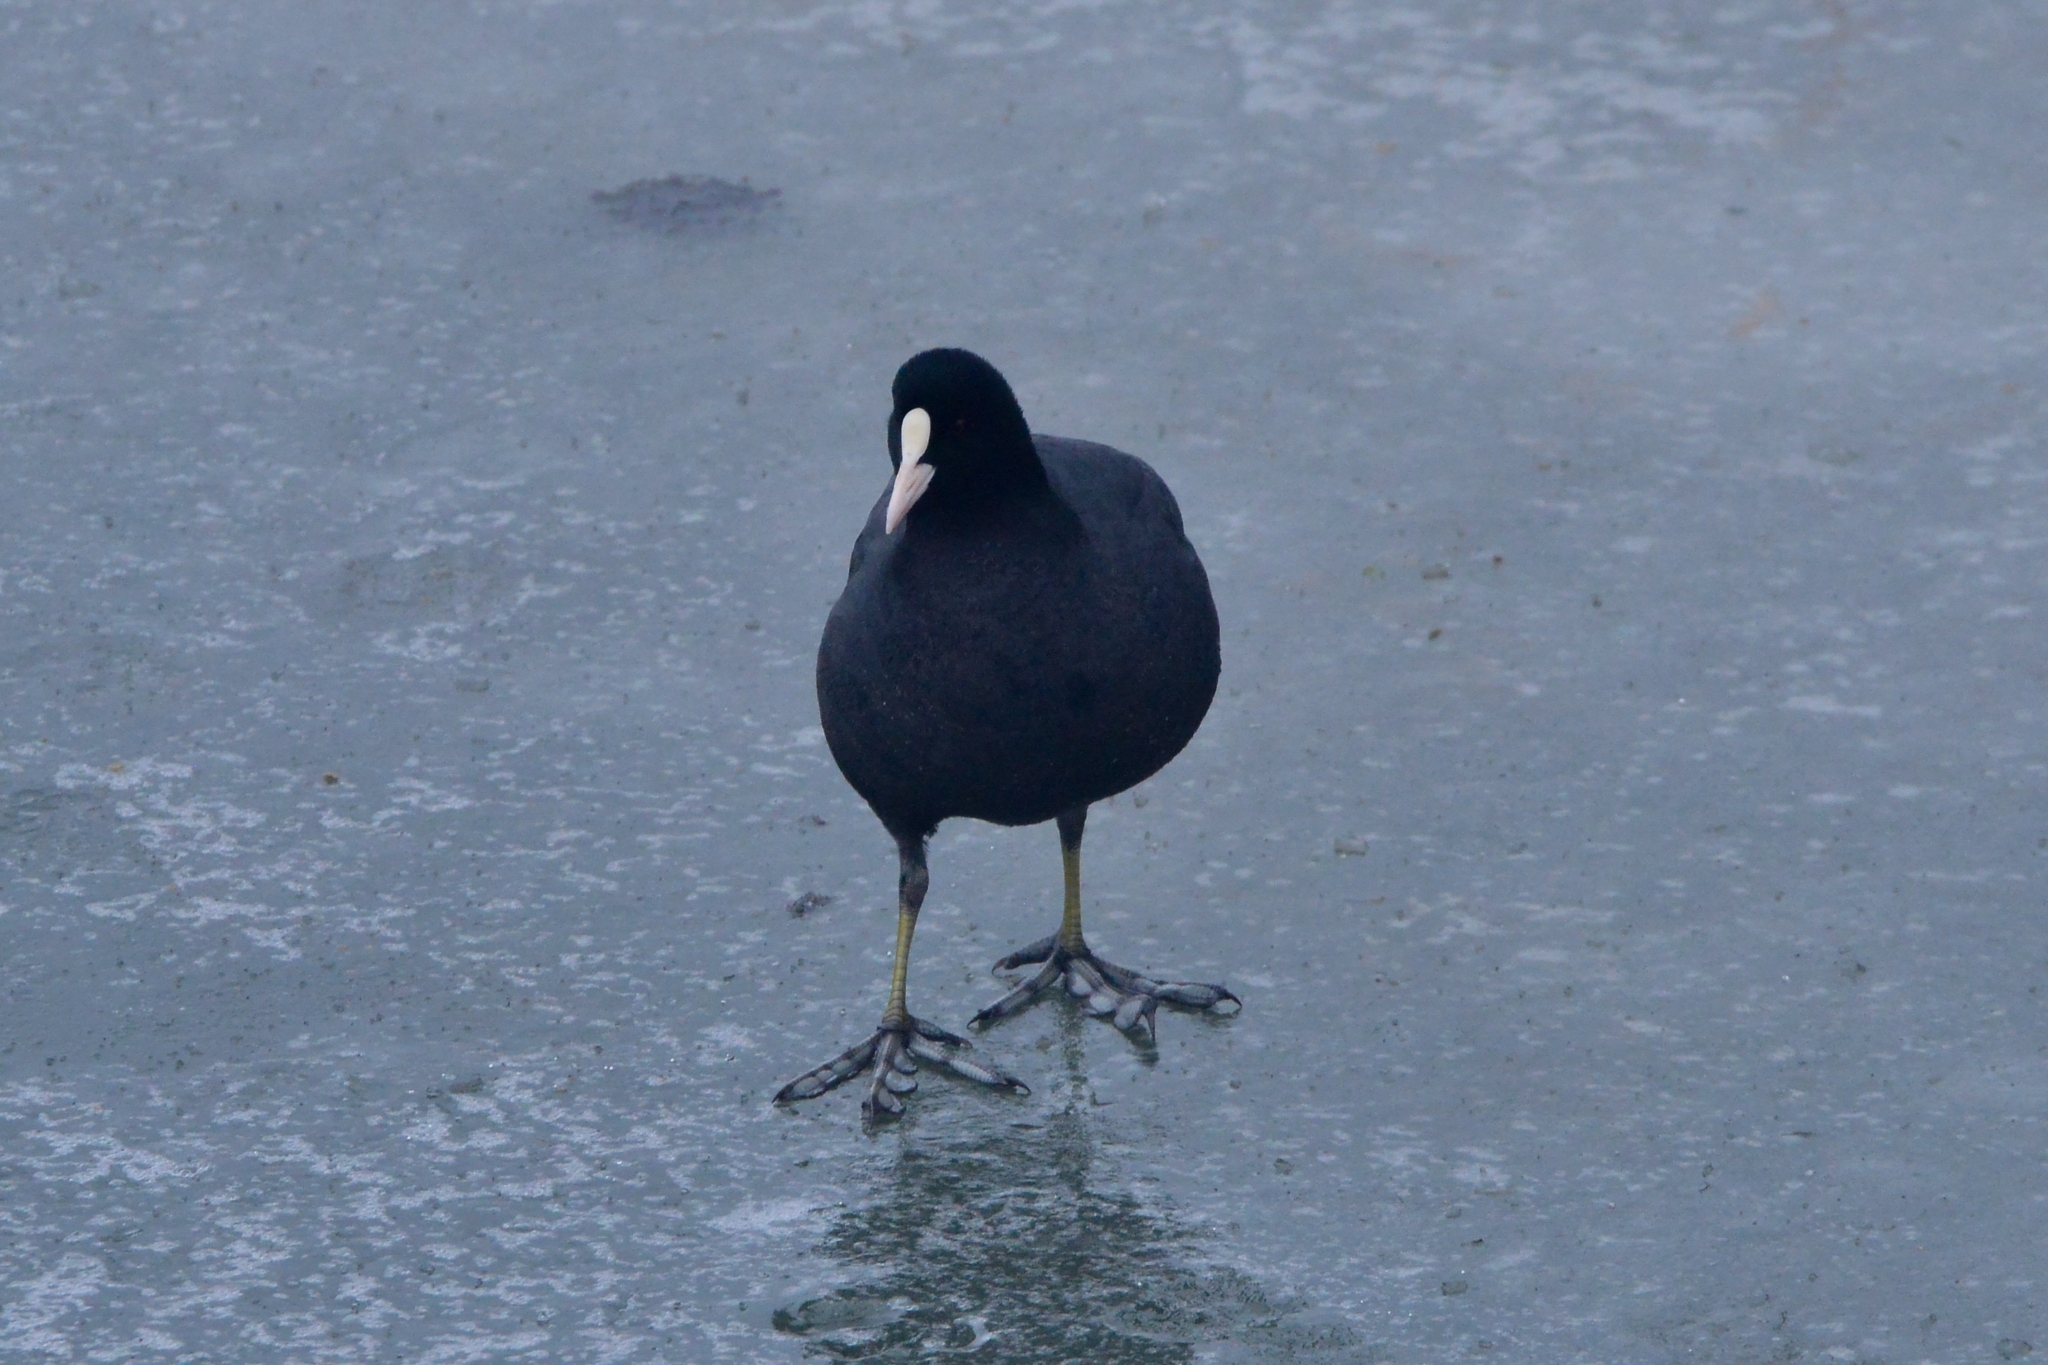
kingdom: Animalia
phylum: Chordata
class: Aves
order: Gruiformes
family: Rallidae
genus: Fulica
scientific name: Fulica atra
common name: Eurasian coot
